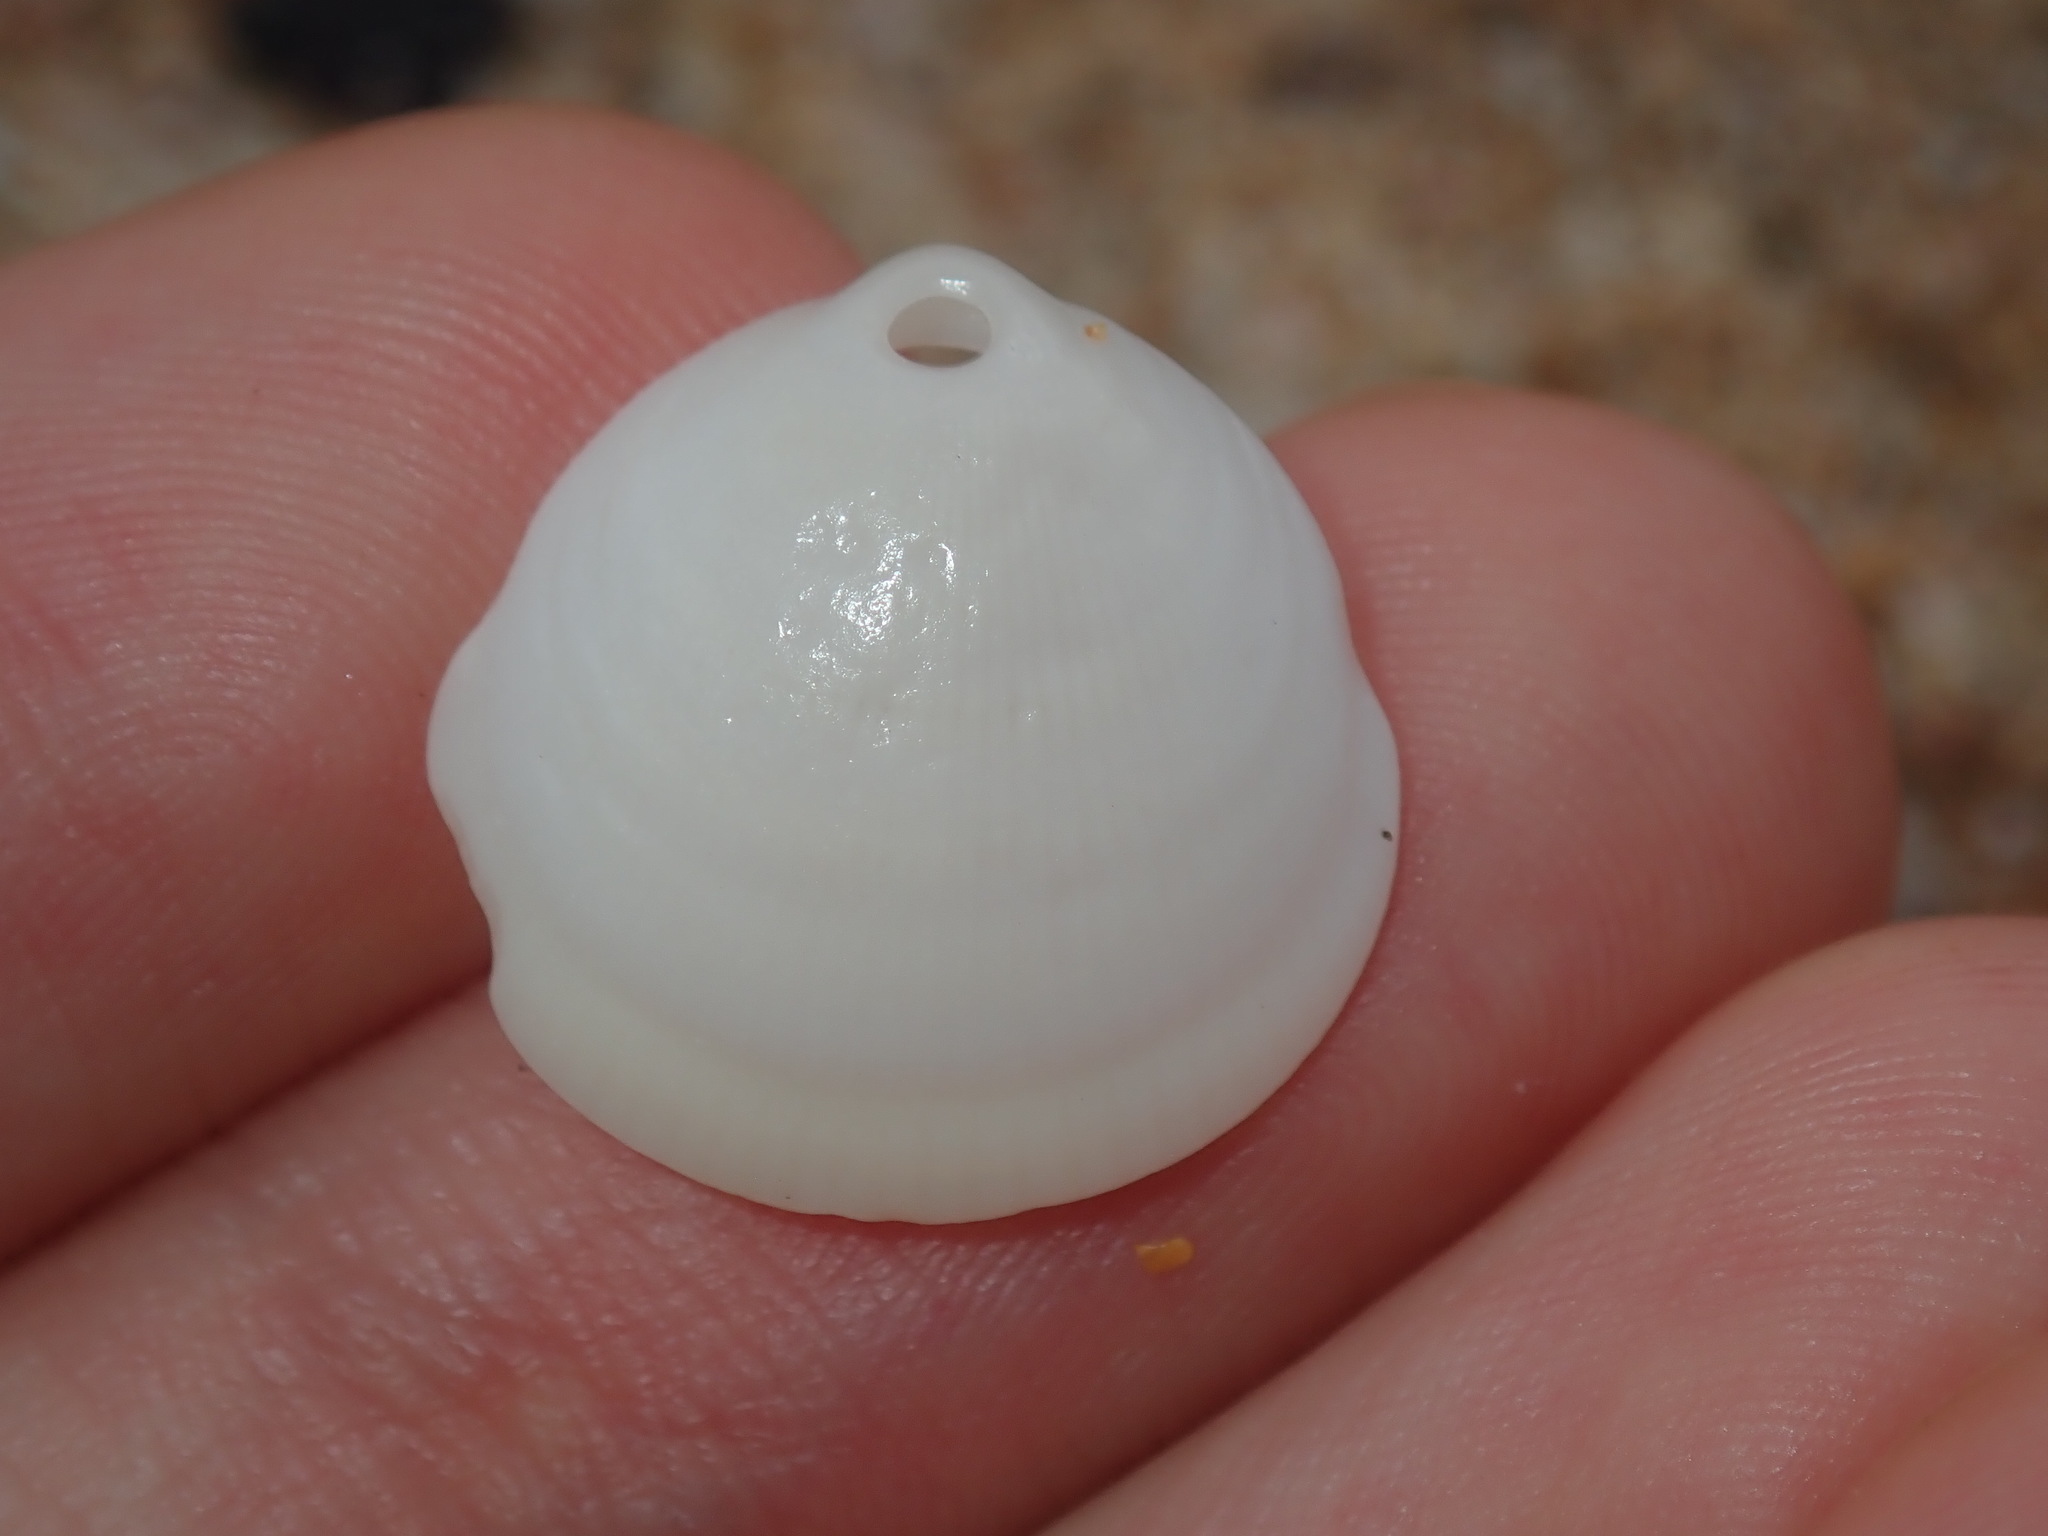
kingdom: Animalia
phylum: Mollusca
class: Bivalvia
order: Arcida
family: Glycymerididae
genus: Glycymeris
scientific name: Glycymeris holoserica
